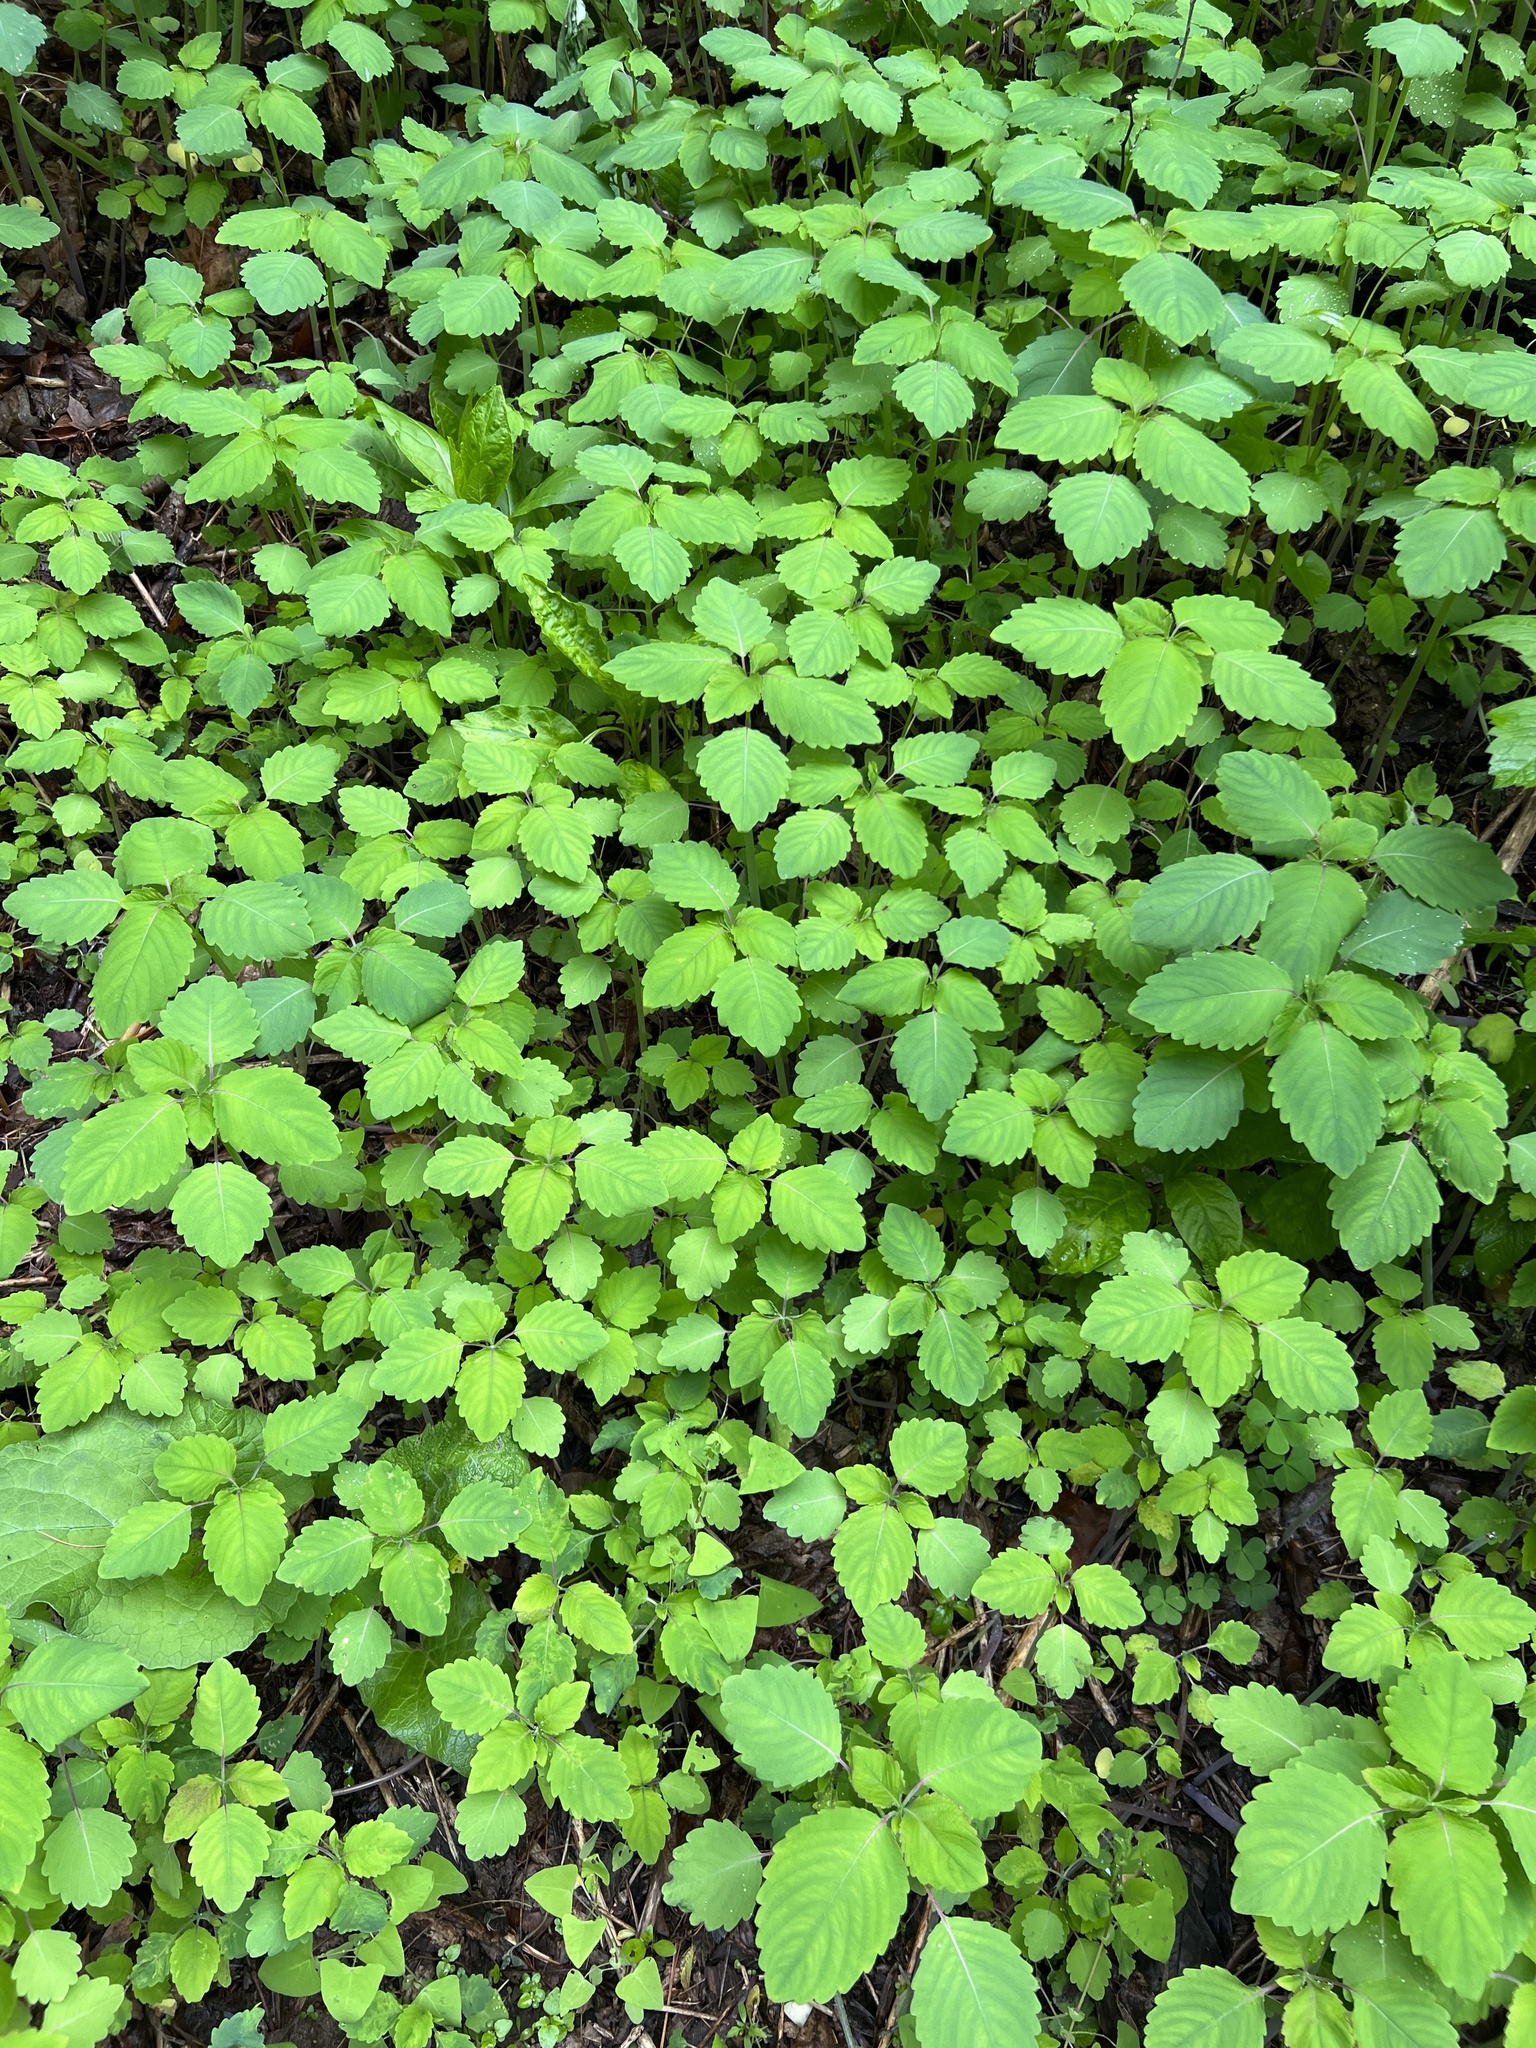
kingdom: Plantae
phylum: Tracheophyta
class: Magnoliopsida
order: Ericales
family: Balsaminaceae
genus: Impatiens
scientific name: Impatiens
